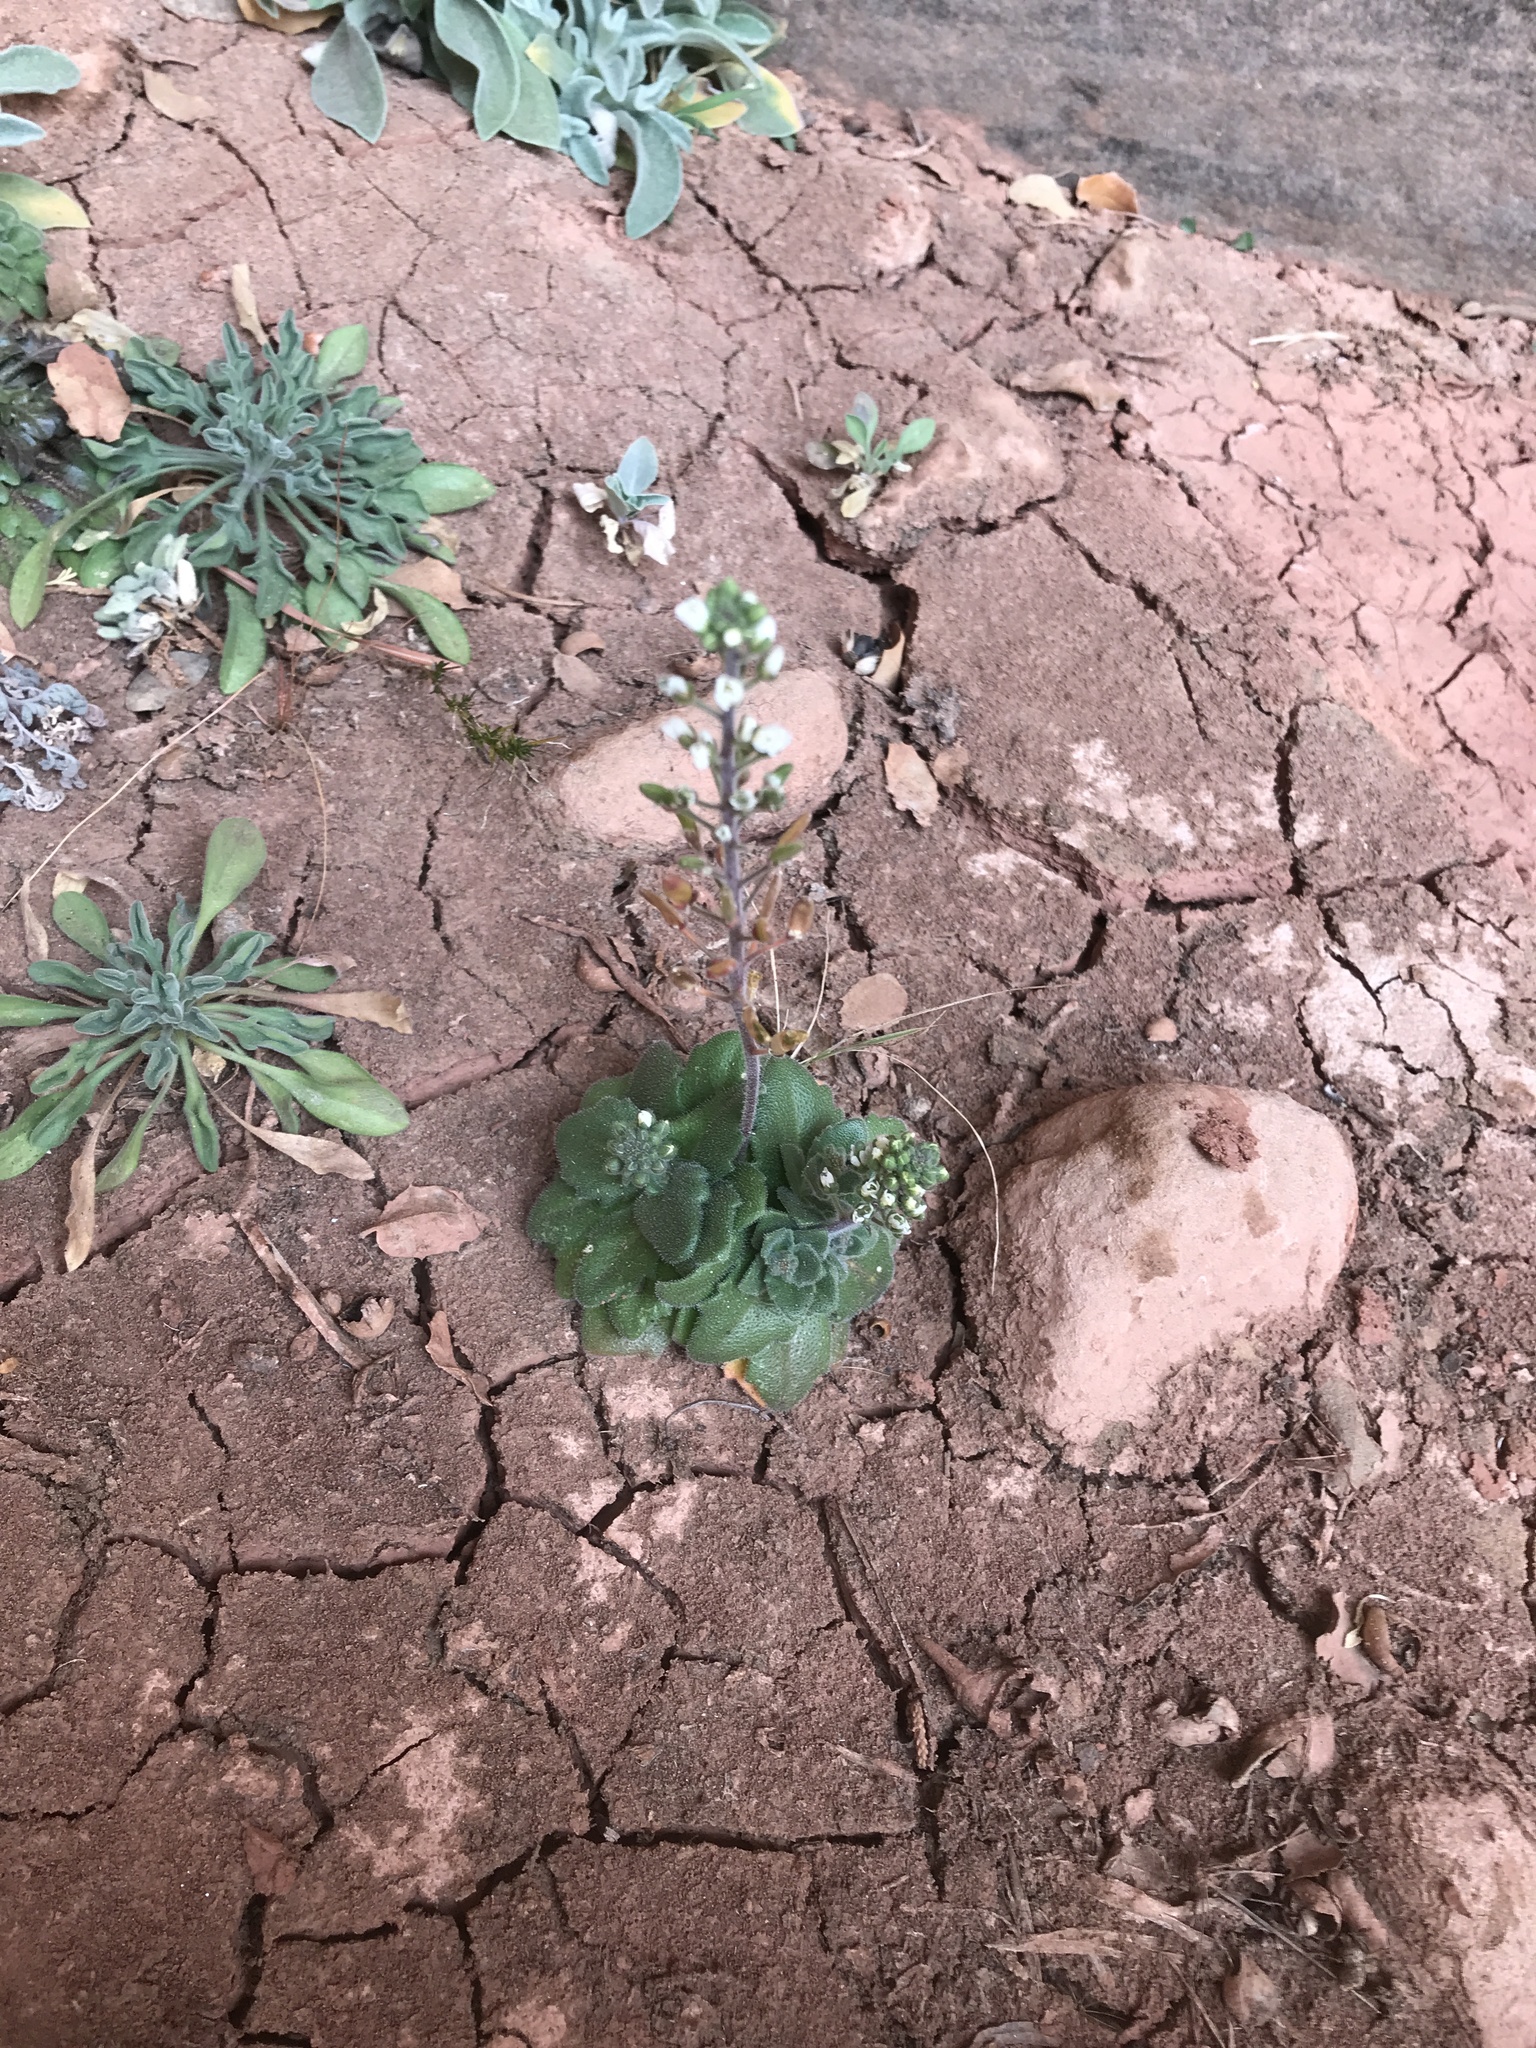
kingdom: Plantae
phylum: Tracheophyta
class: Magnoliopsida
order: Brassicales
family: Brassicaceae
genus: Tomostima
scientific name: Tomostima cuneifolia
